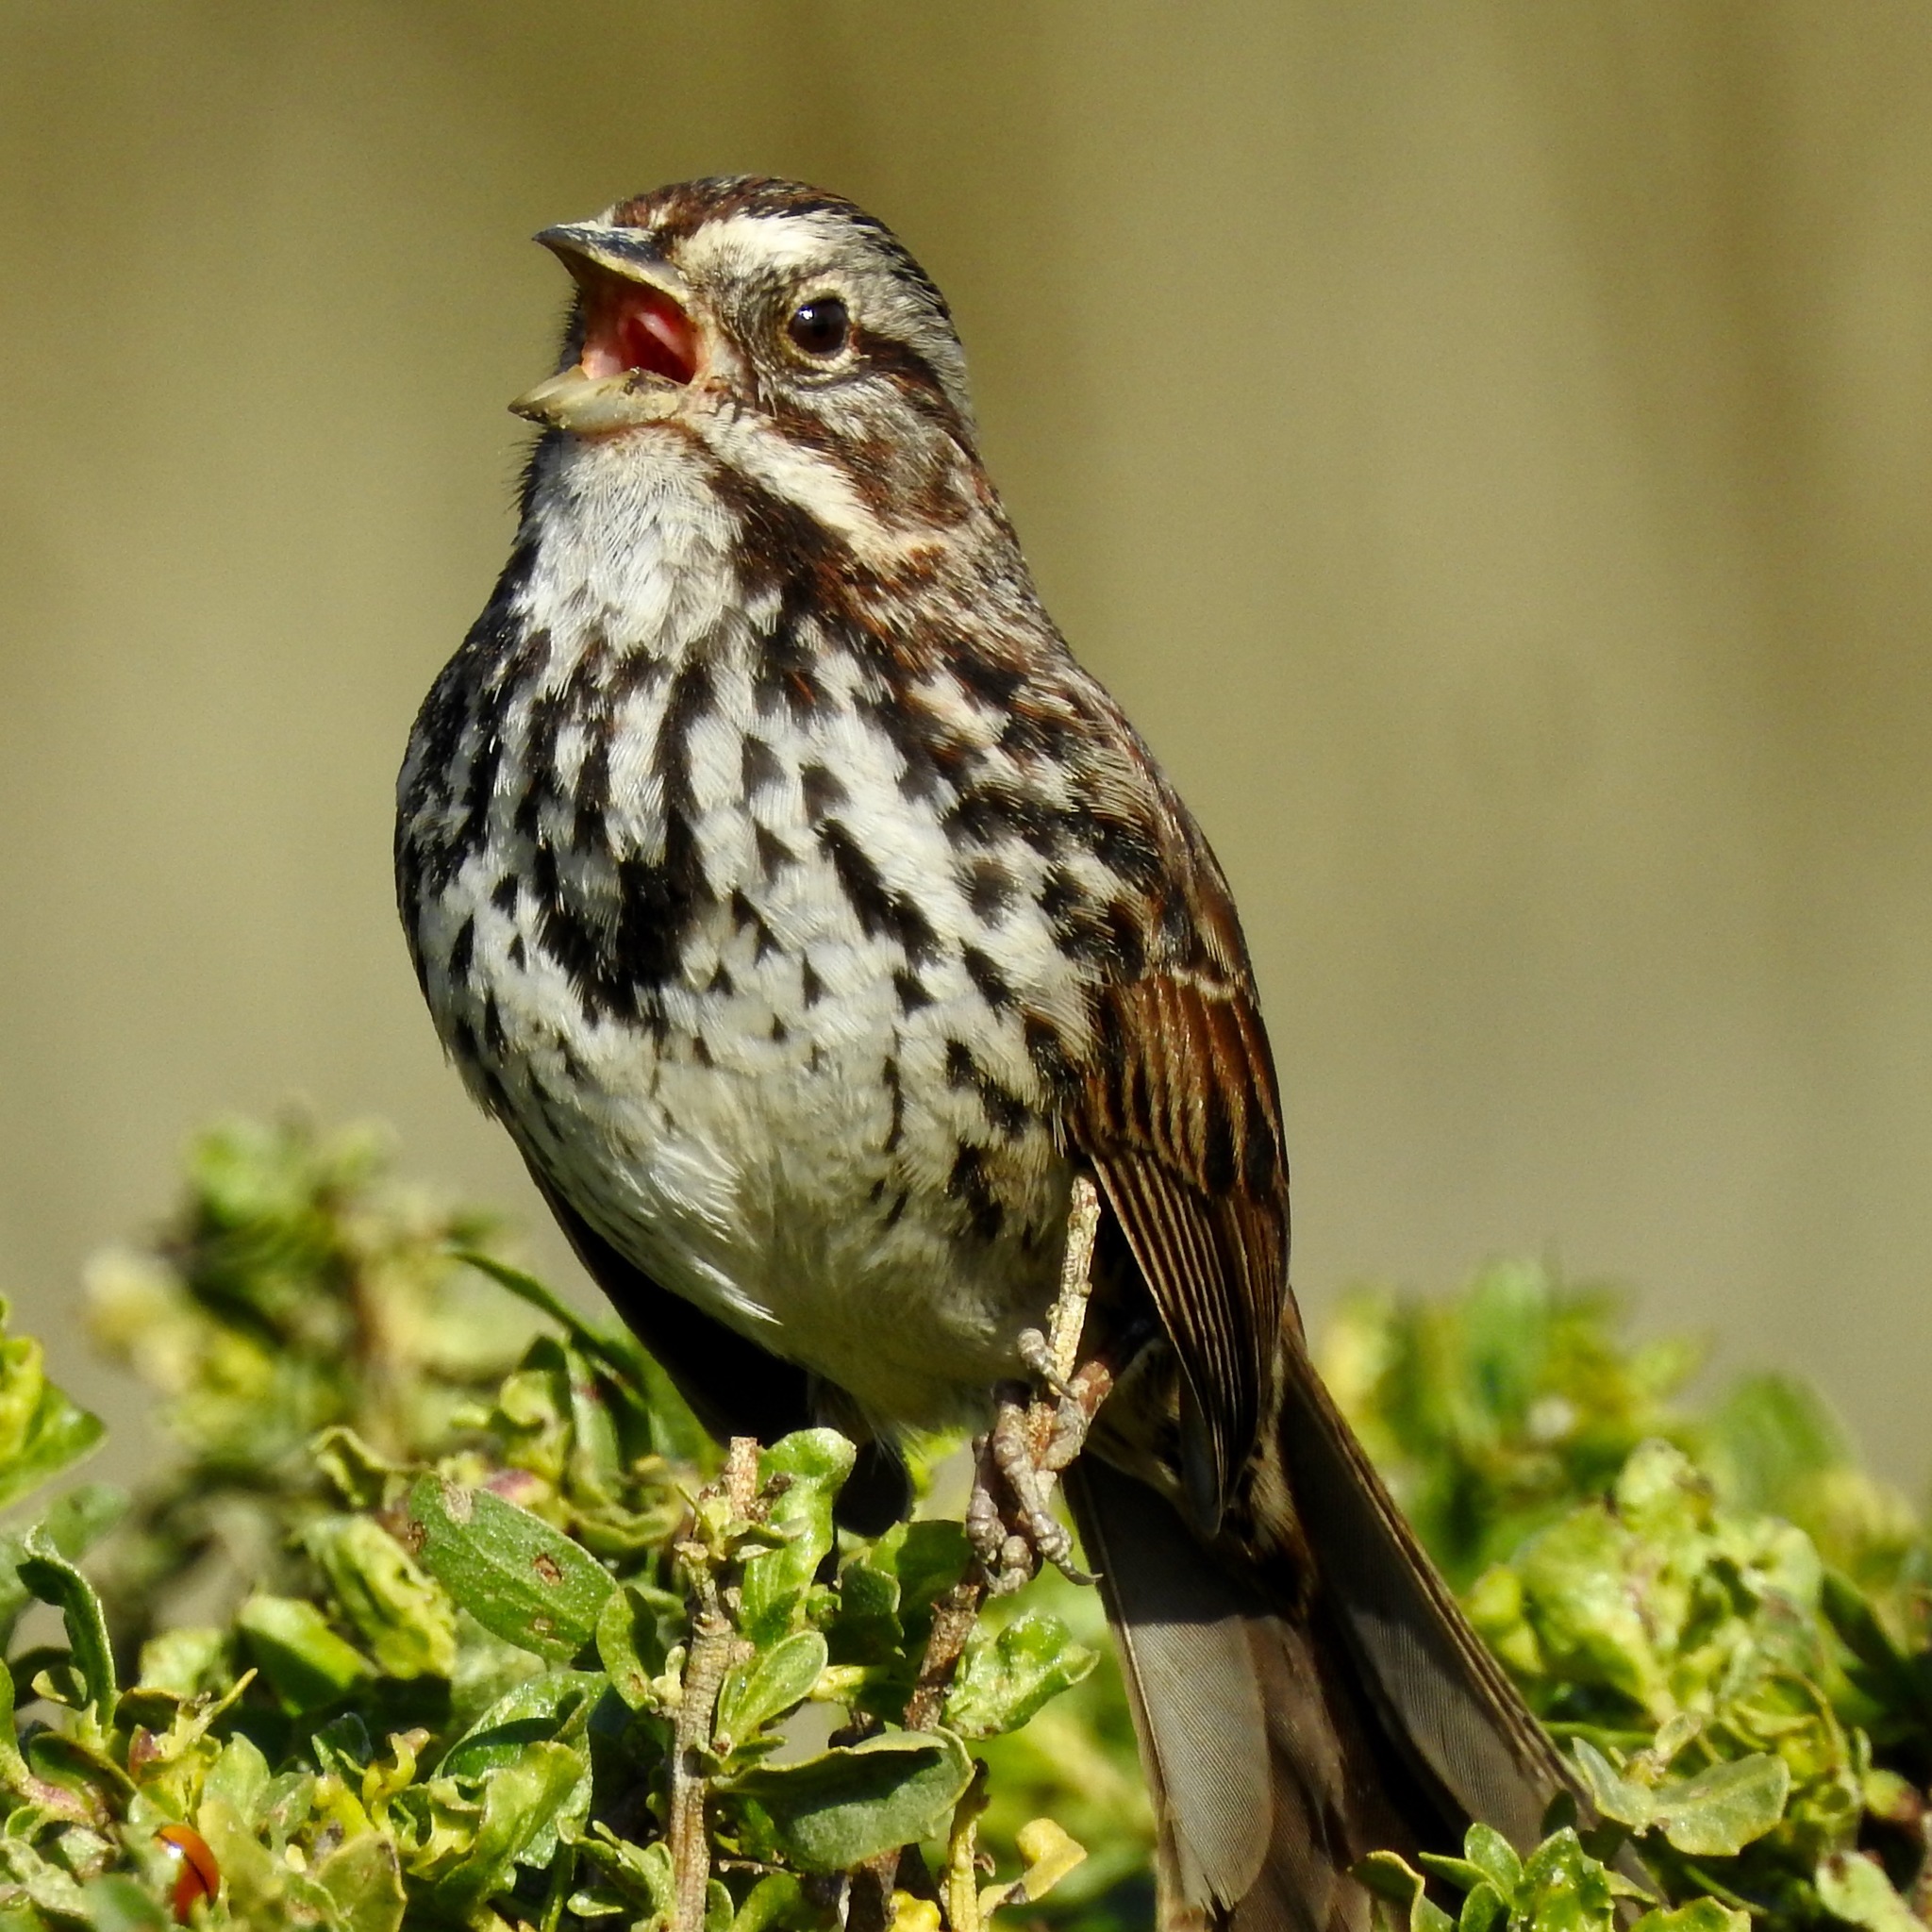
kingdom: Animalia
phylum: Chordata
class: Aves
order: Passeriformes
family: Passerellidae
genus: Melospiza
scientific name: Melospiza melodia
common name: Song sparrow
